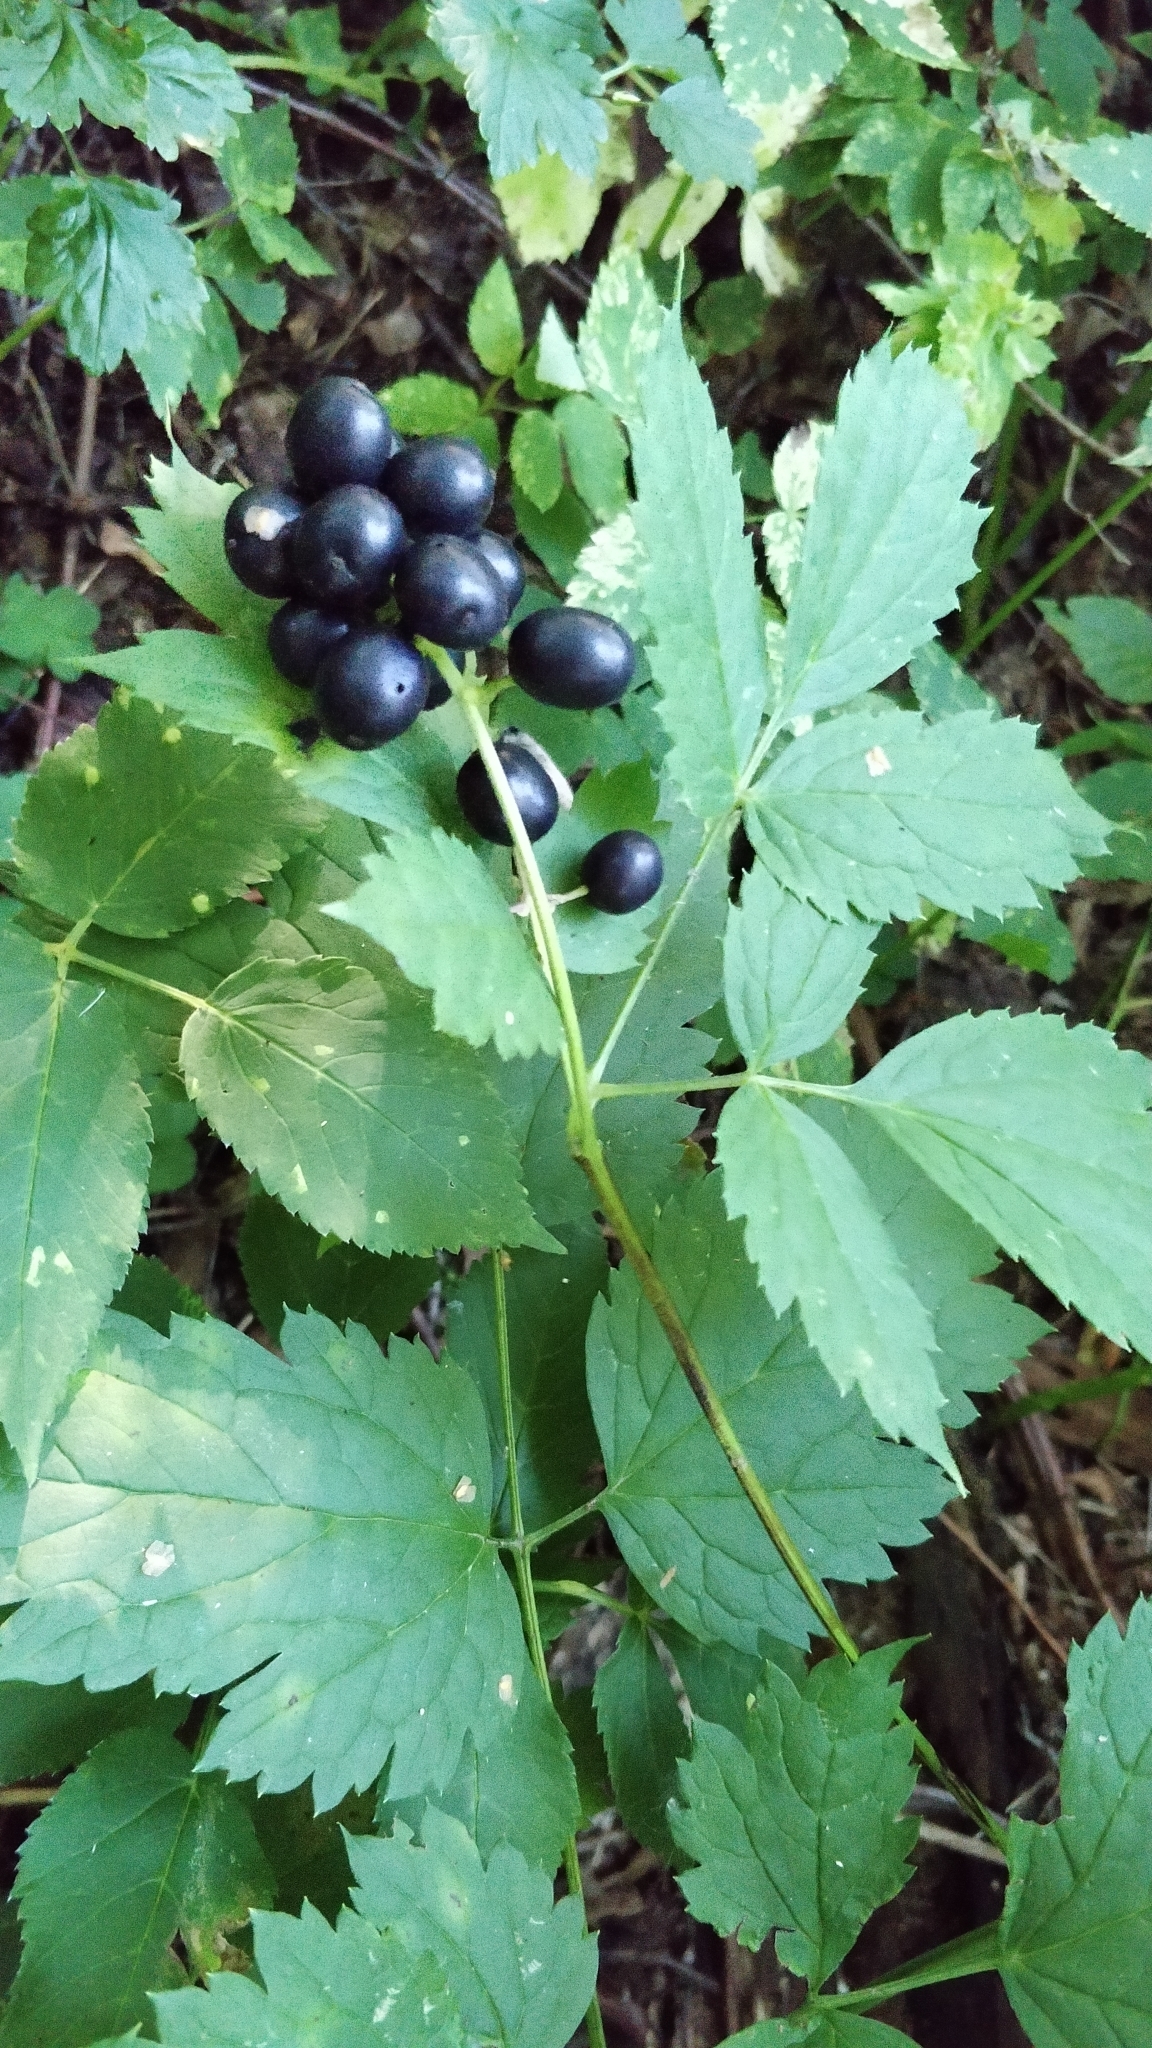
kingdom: Plantae
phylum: Tracheophyta
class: Magnoliopsida
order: Ranunculales
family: Ranunculaceae
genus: Actaea
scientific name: Actaea spicata
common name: Baneberry
